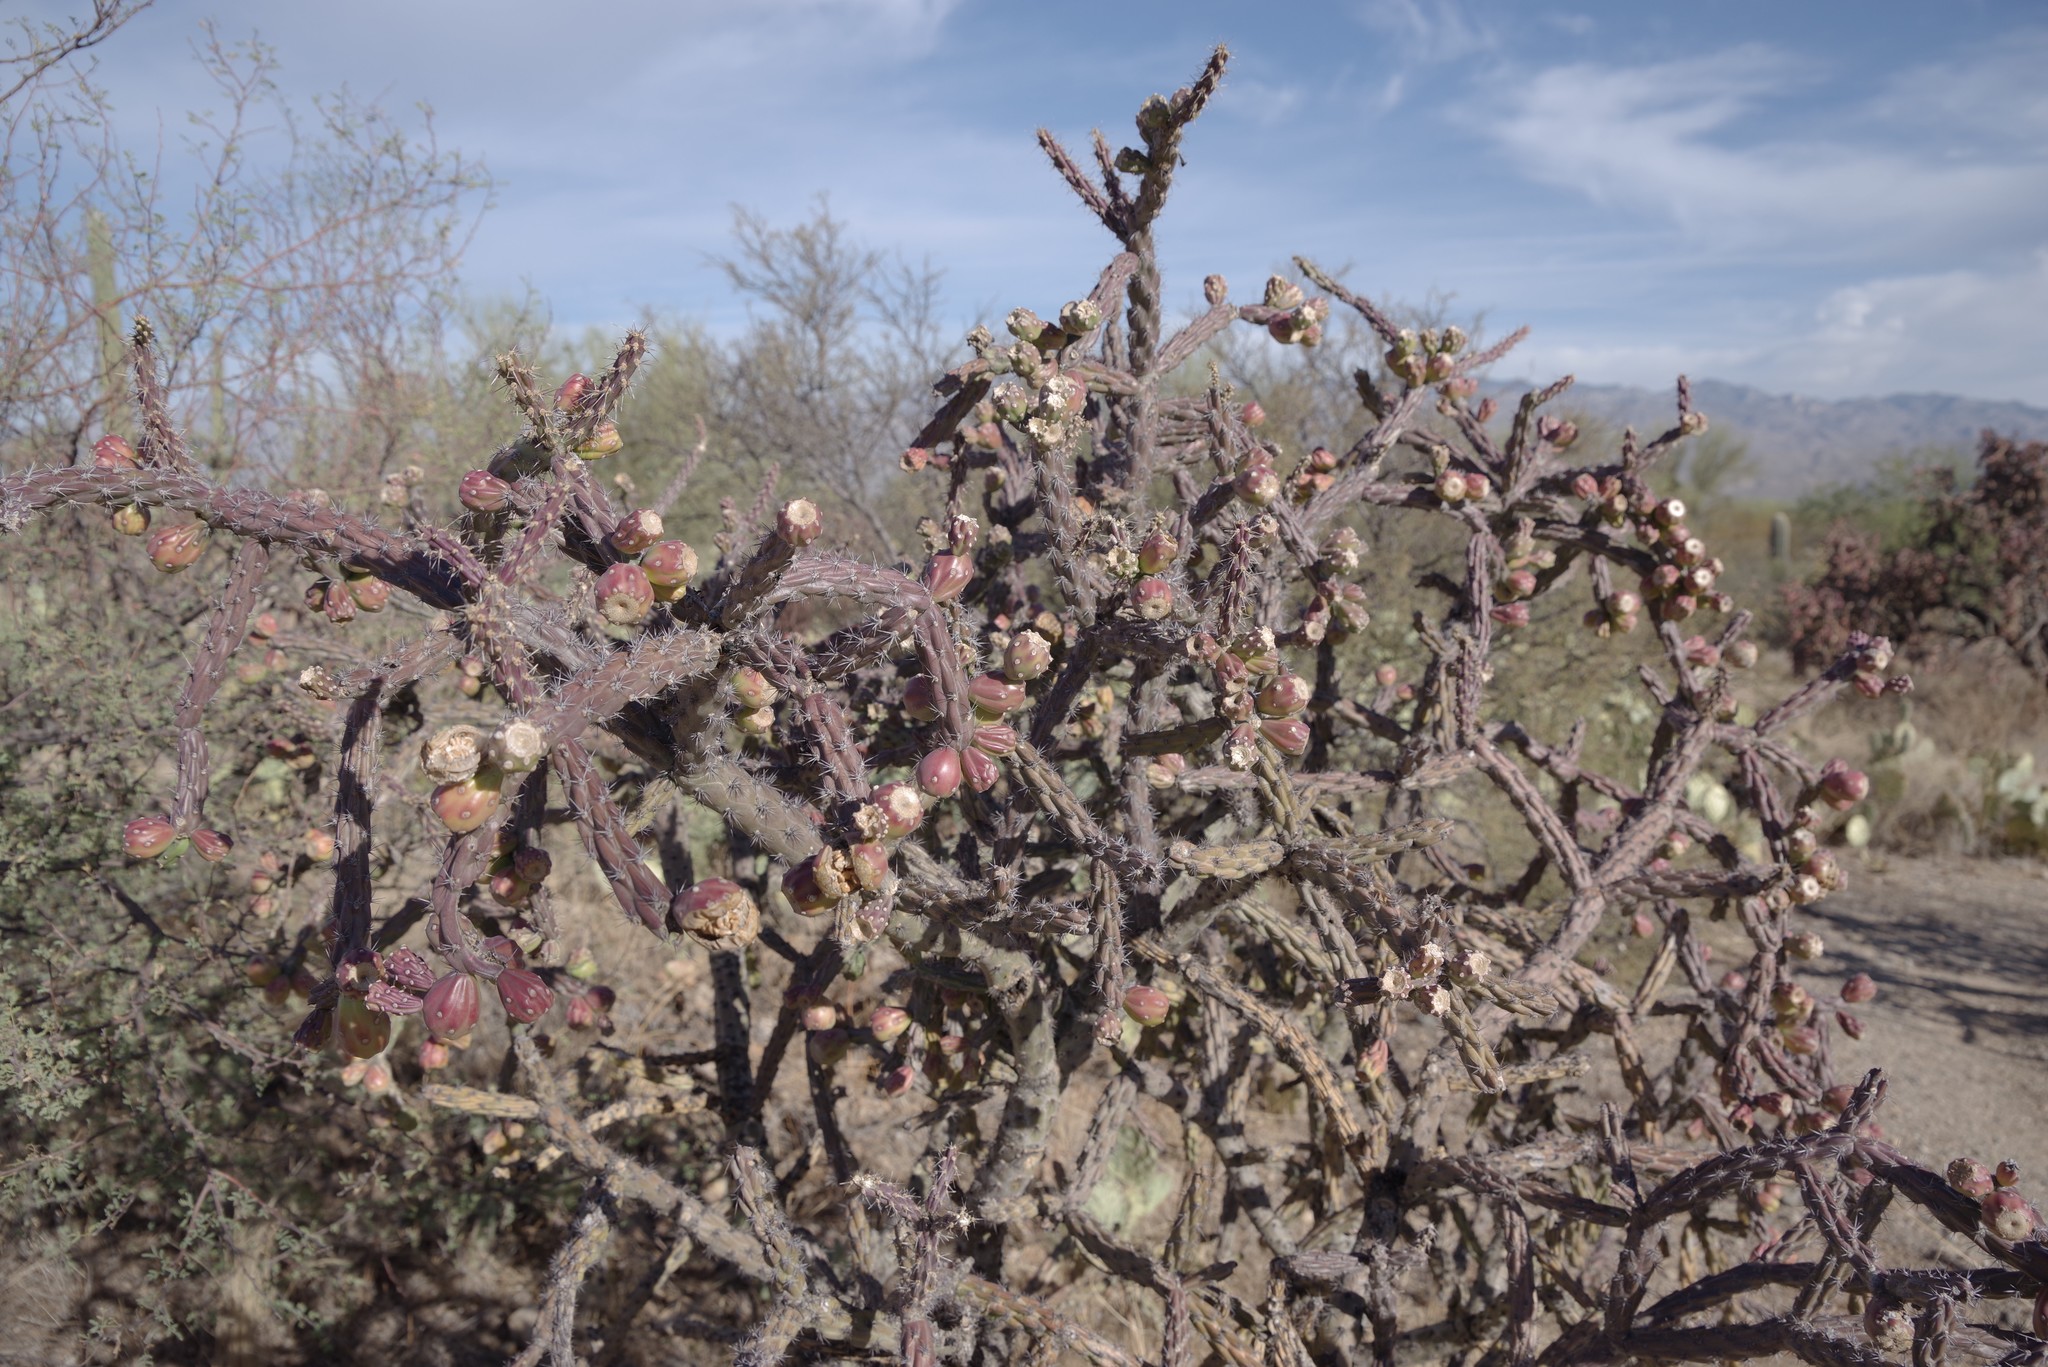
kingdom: Plantae
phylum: Tracheophyta
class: Magnoliopsida
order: Caryophyllales
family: Cactaceae
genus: Cylindropuntia
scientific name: Cylindropuntia arbuscula
